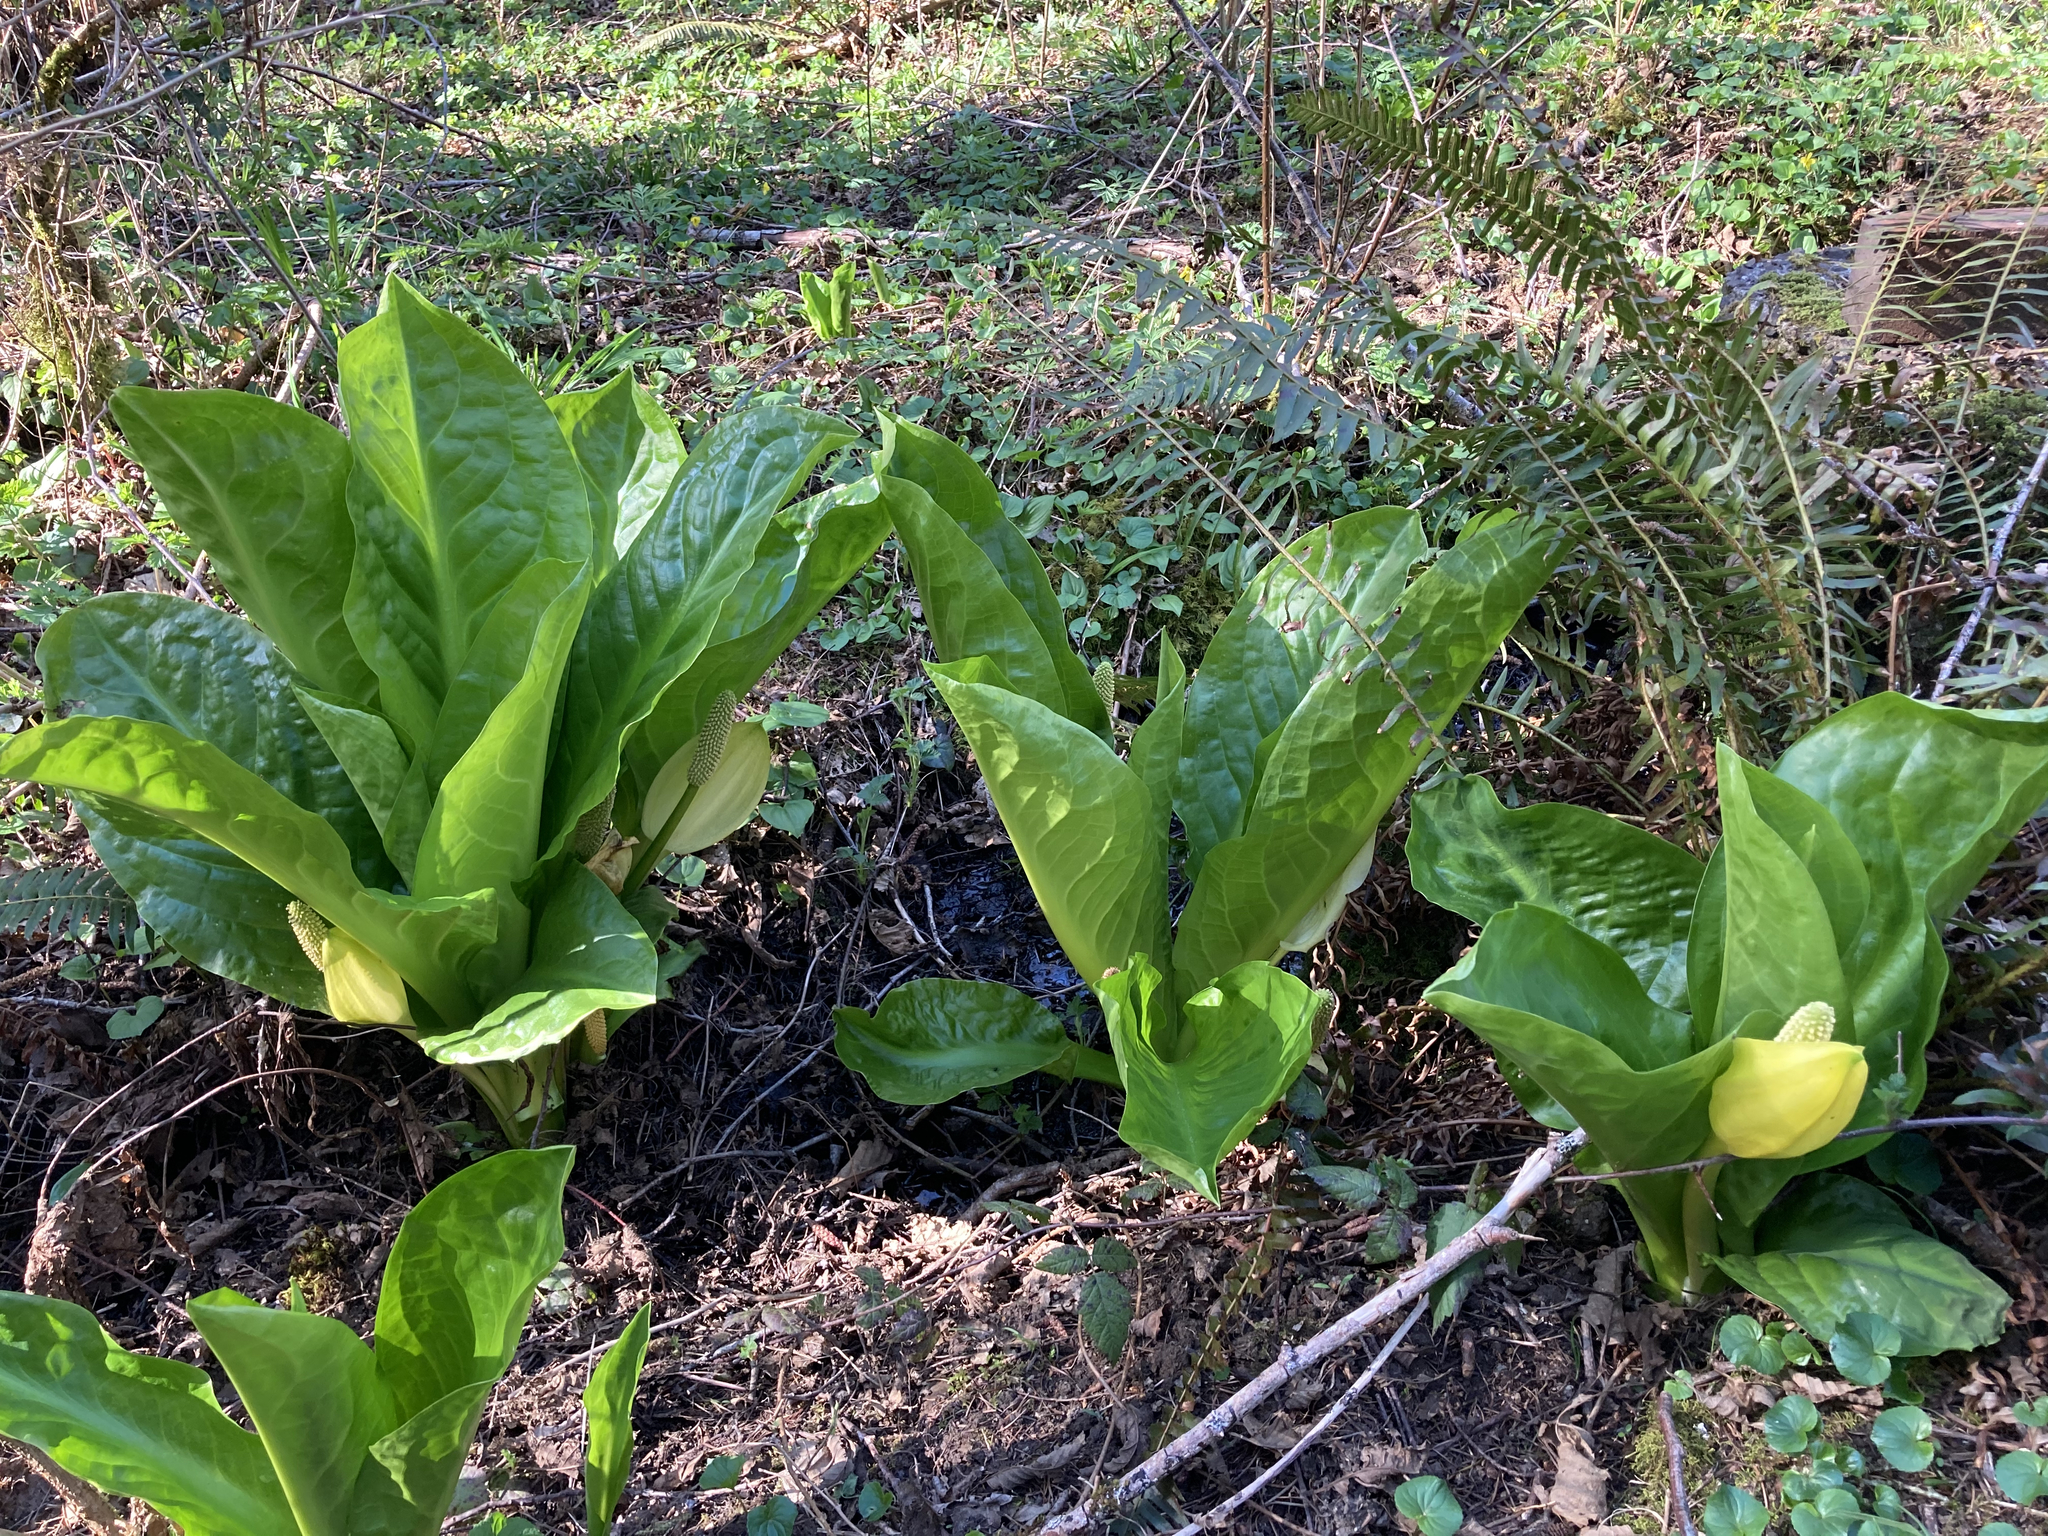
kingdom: Plantae
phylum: Tracheophyta
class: Liliopsida
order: Alismatales
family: Araceae
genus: Lysichiton
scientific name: Lysichiton americanus
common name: American skunk cabbage
